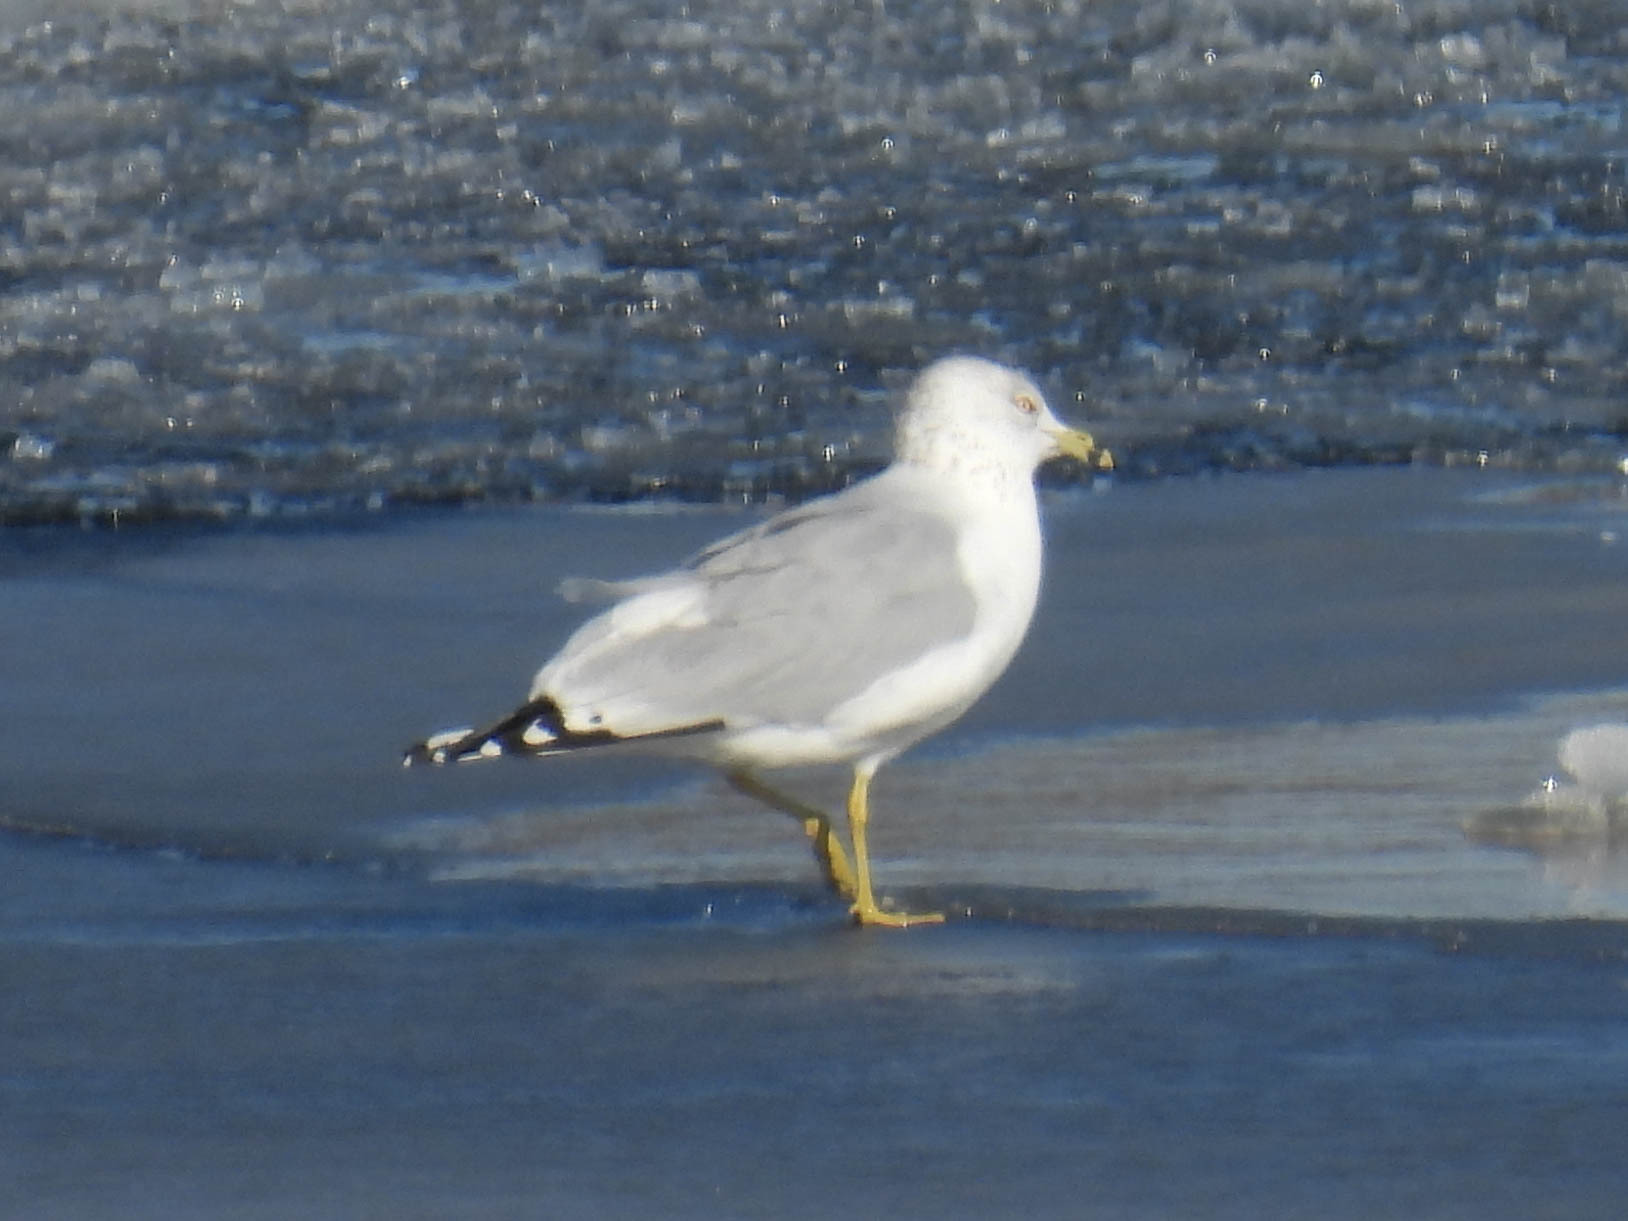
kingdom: Animalia
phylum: Chordata
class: Aves
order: Charadriiformes
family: Laridae
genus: Larus
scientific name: Larus delawarensis
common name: Ring-billed gull
